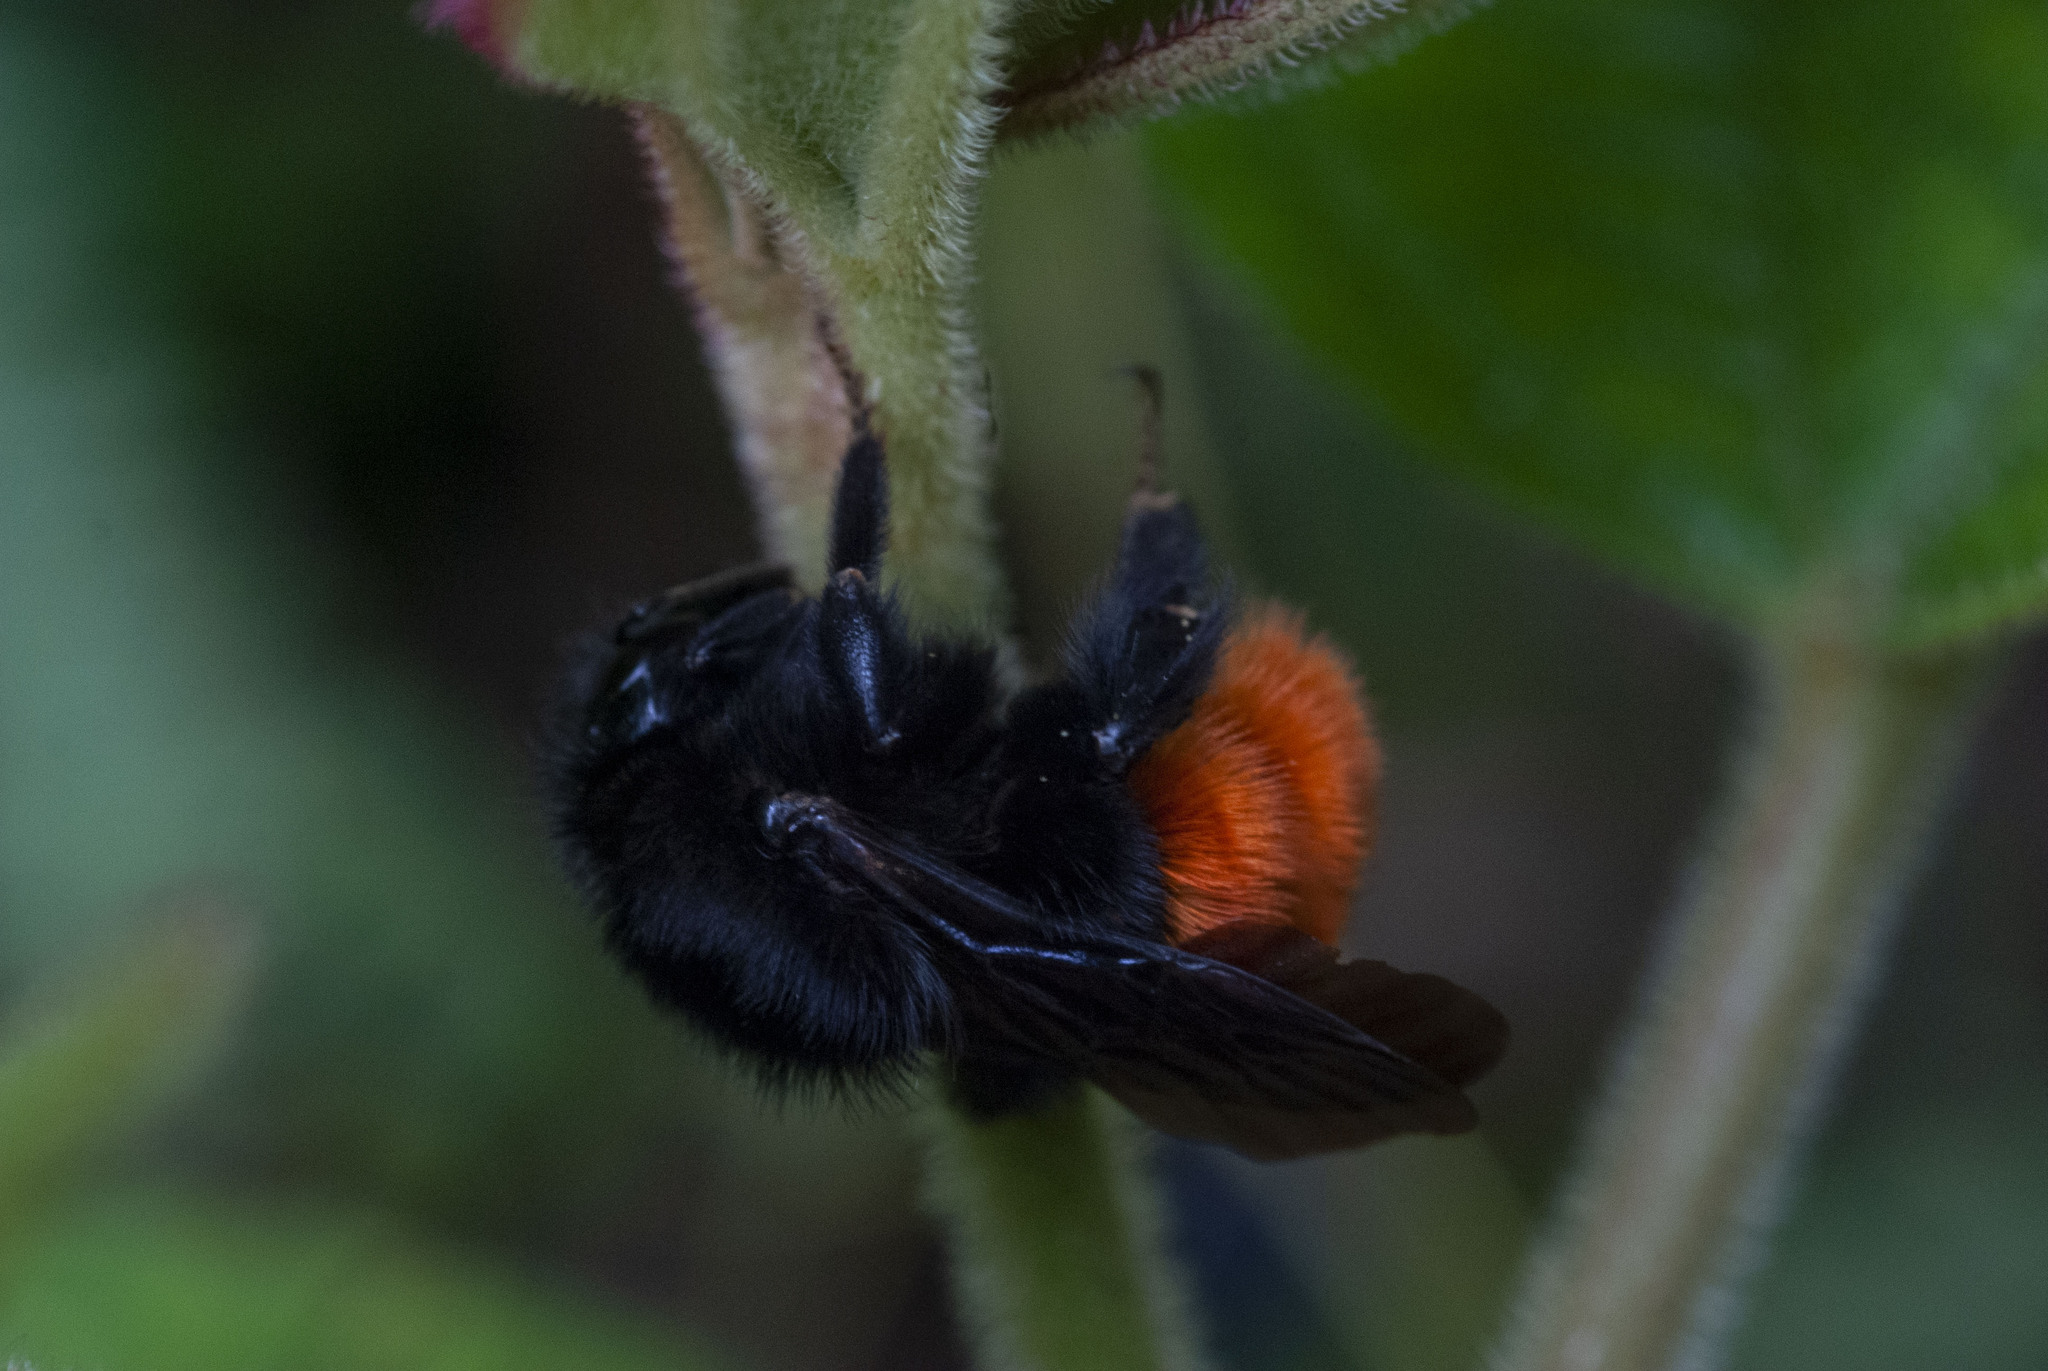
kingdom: Animalia
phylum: Arthropoda
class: Insecta
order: Hymenoptera
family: Apidae
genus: Bombus
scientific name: Bombus excellens
